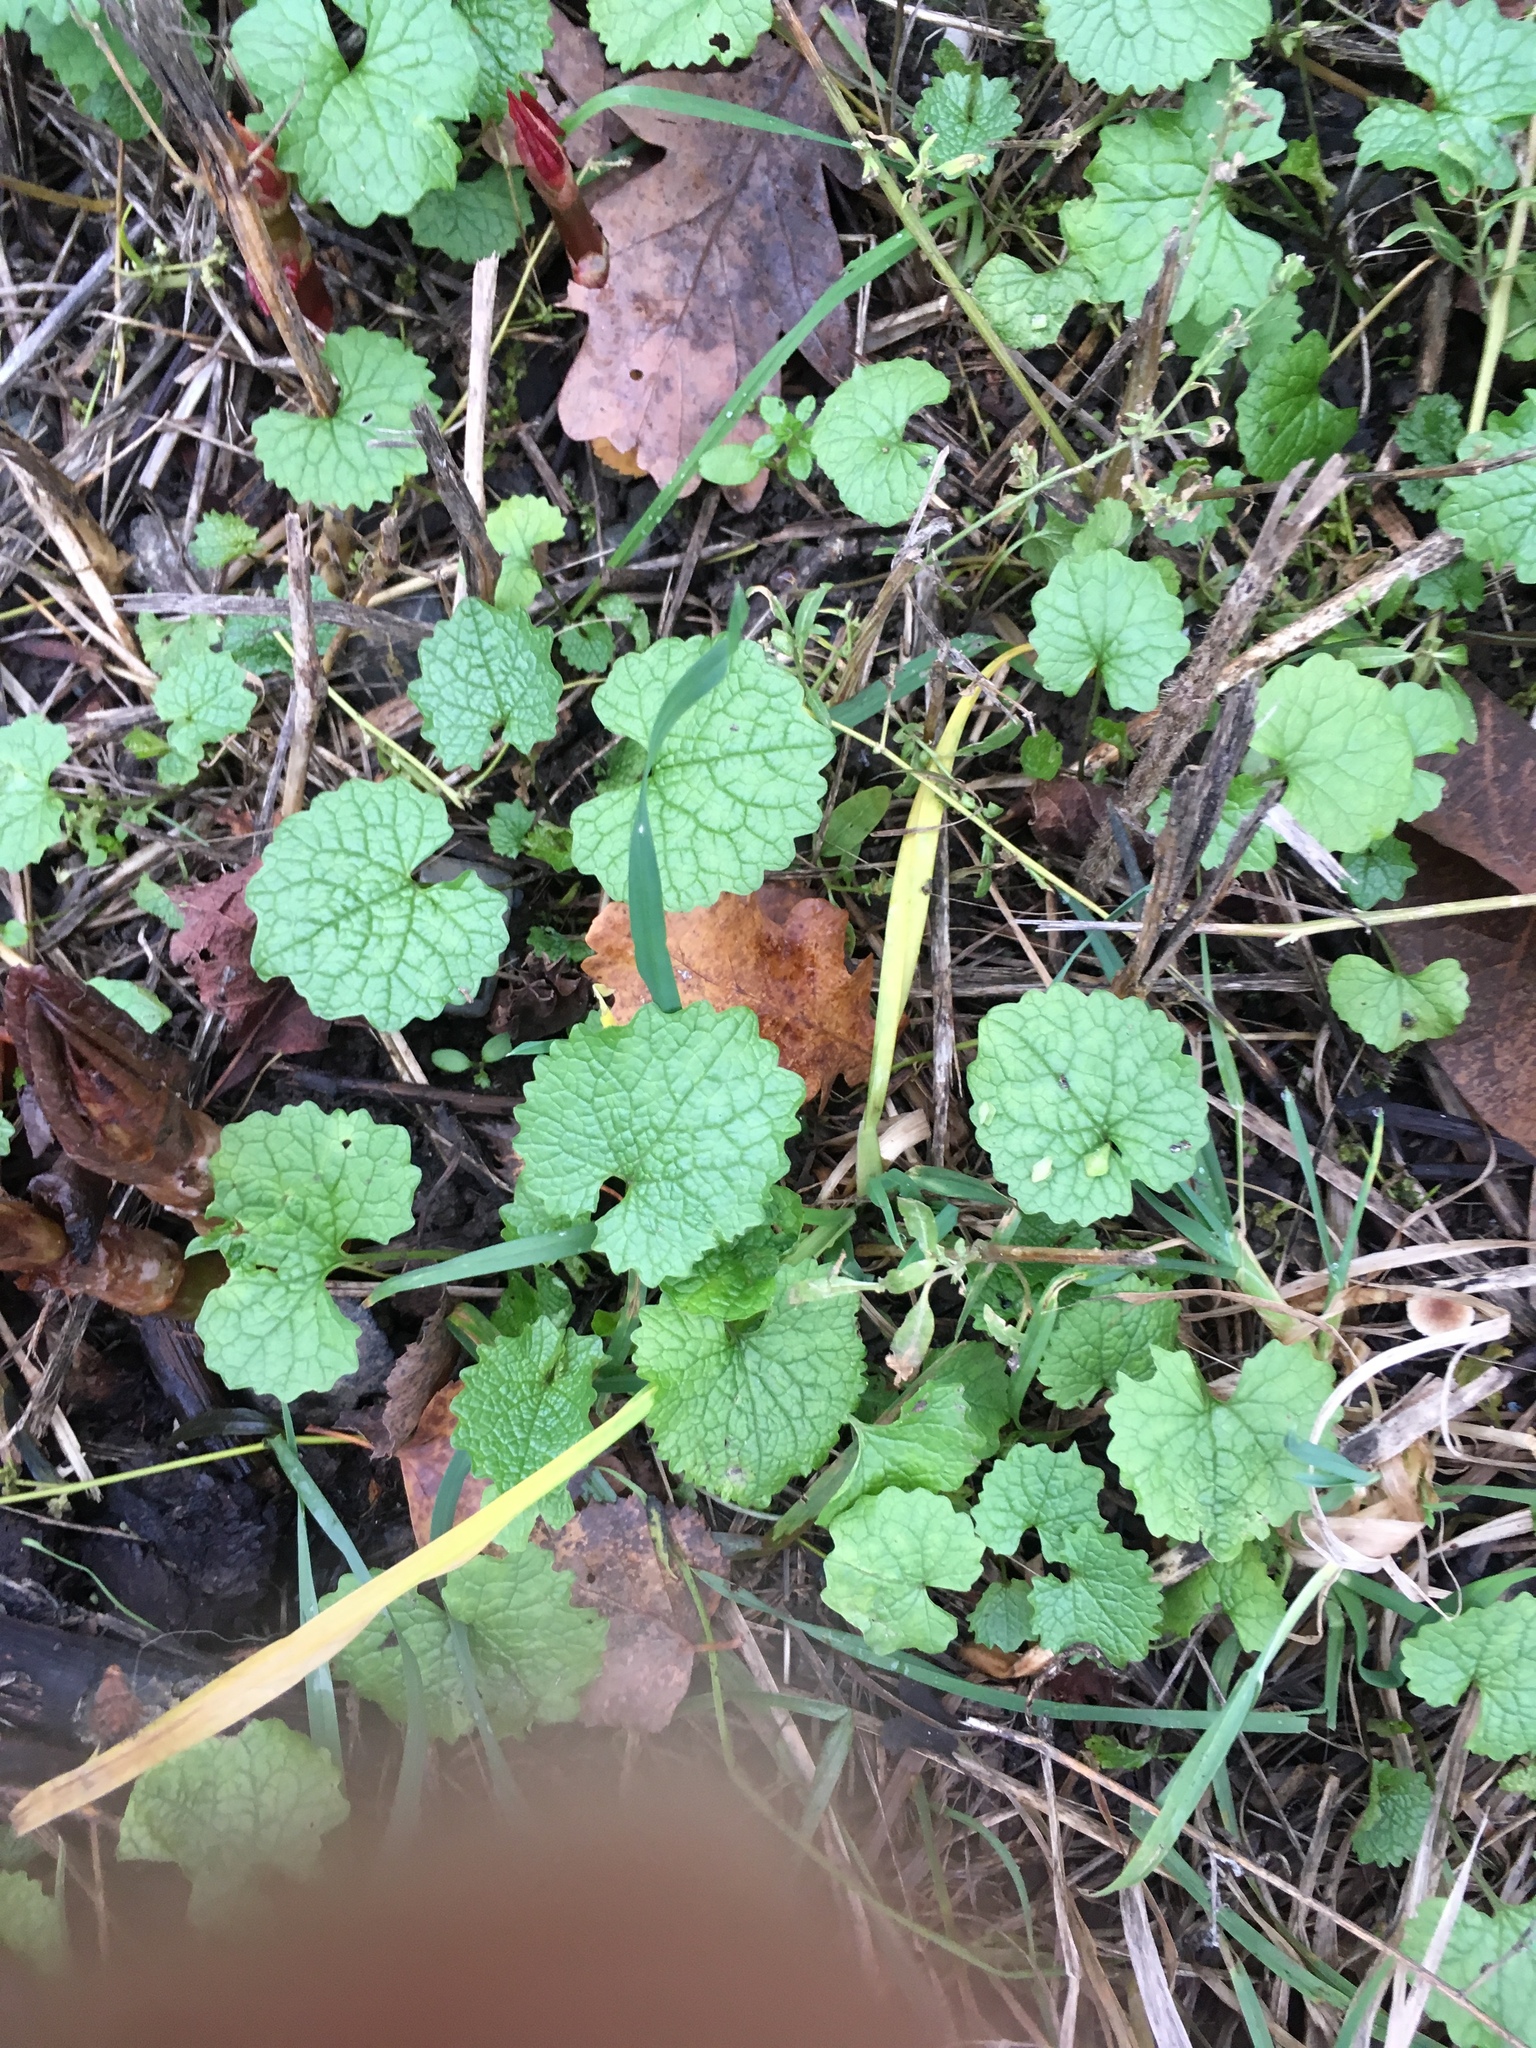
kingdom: Plantae
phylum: Tracheophyta
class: Magnoliopsida
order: Brassicales
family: Brassicaceae
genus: Alliaria
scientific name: Alliaria petiolata
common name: Garlic mustard
